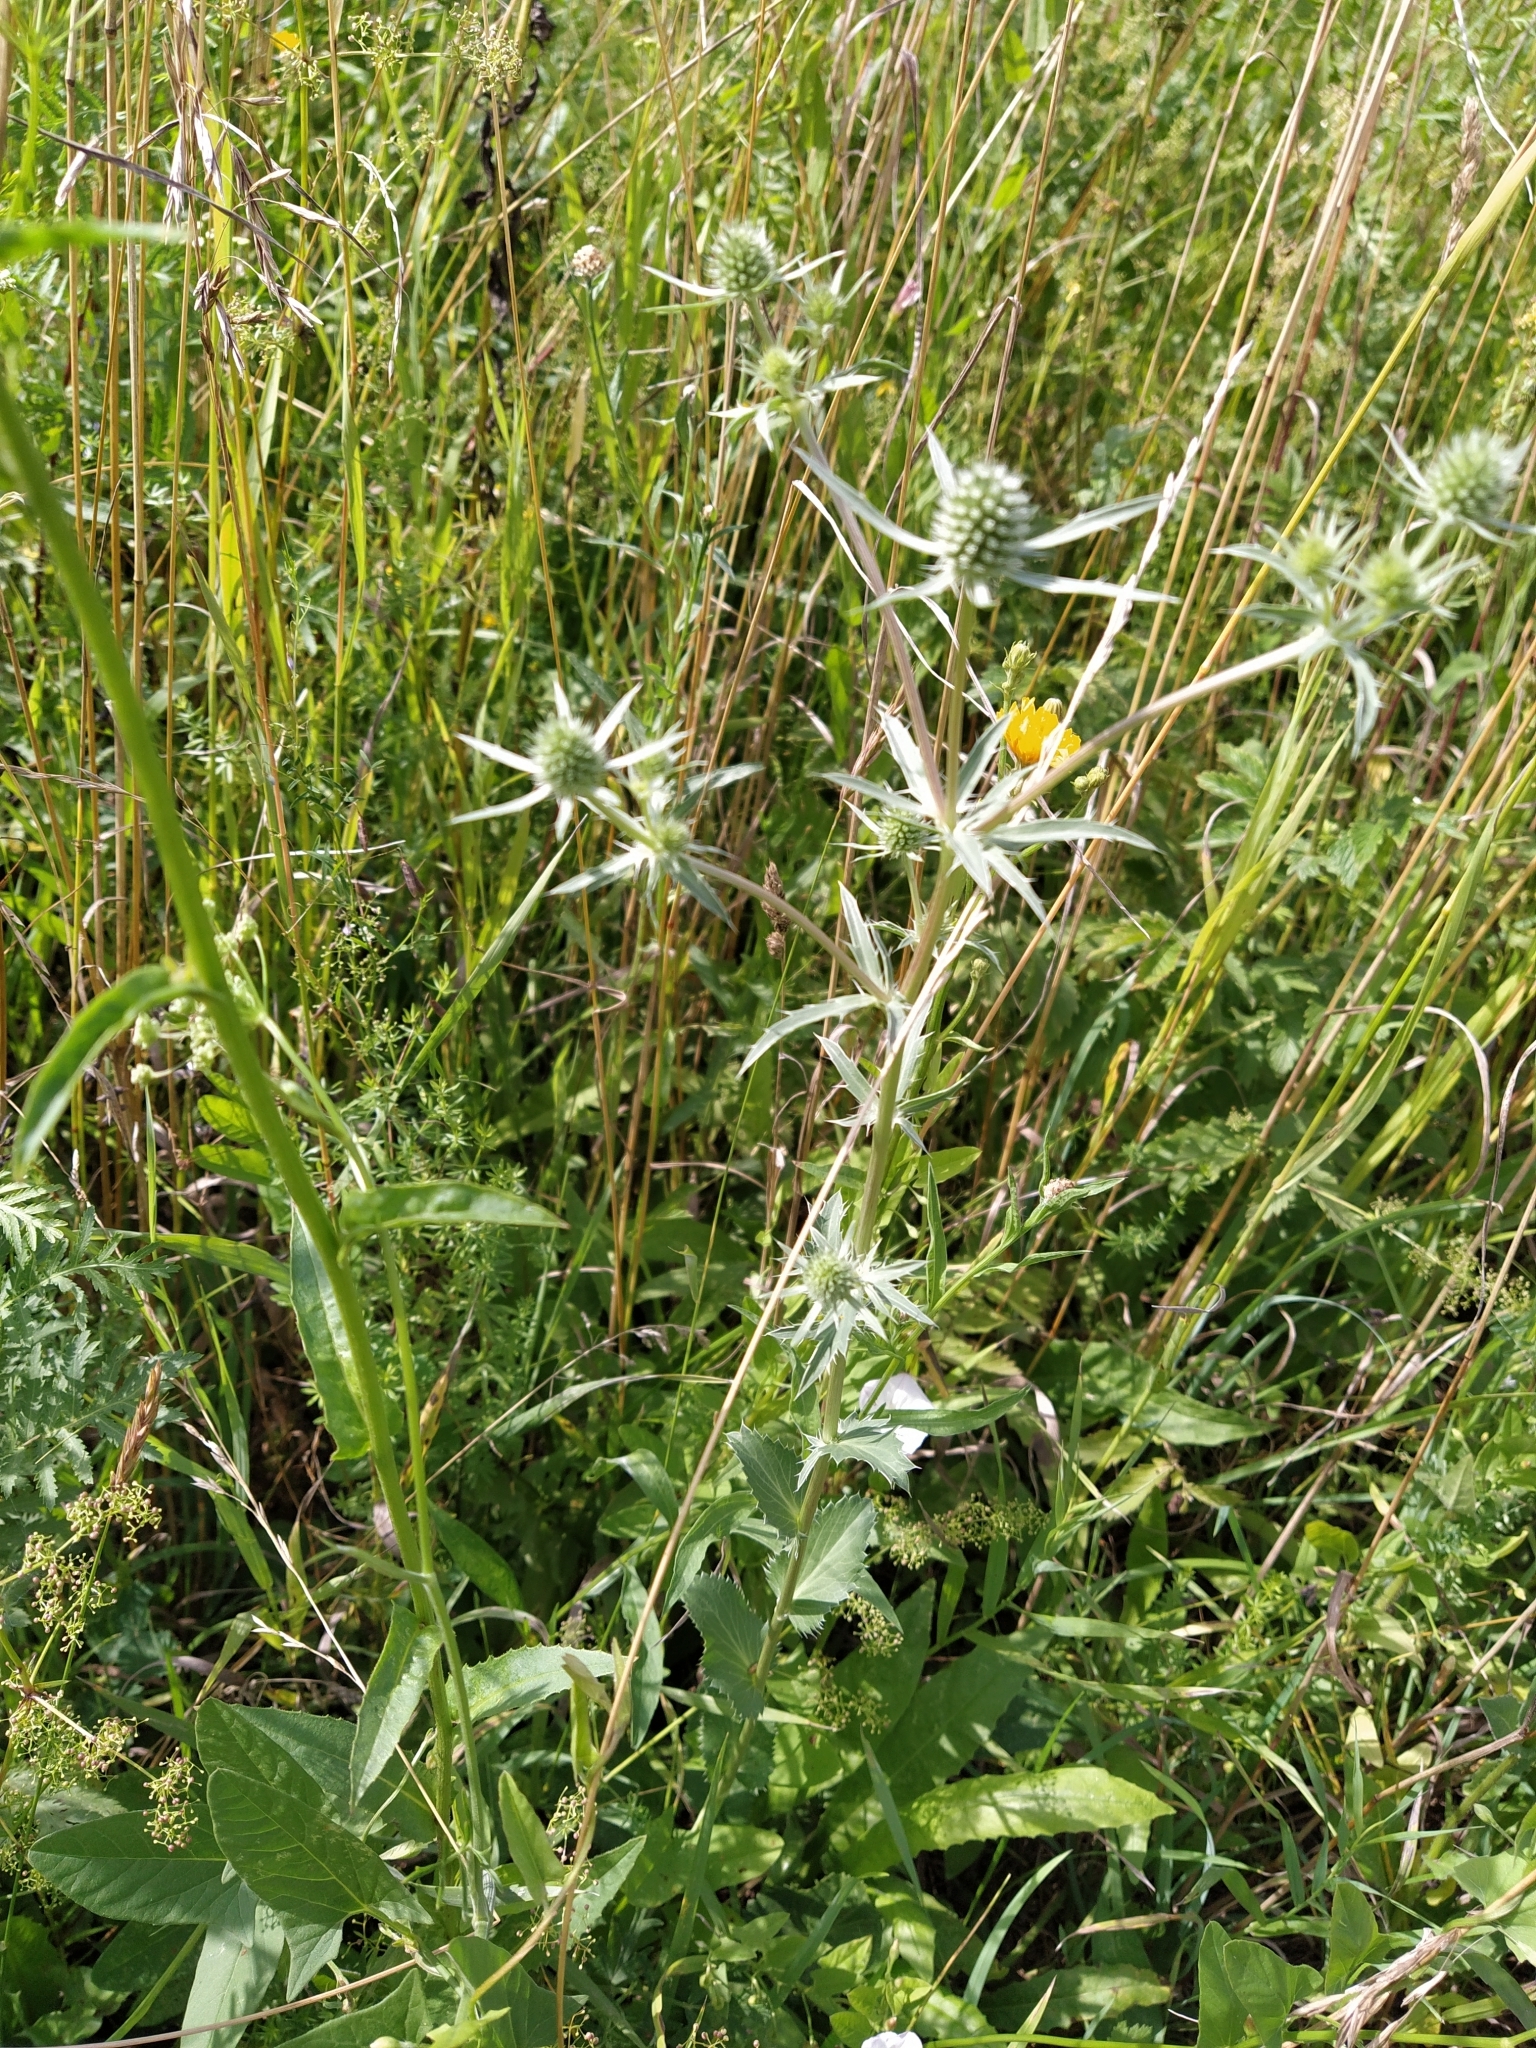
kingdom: Plantae
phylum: Tracheophyta
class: Magnoliopsida
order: Apiales
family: Apiaceae
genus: Eryngium
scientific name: Eryngium planum
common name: Blue eryngo
